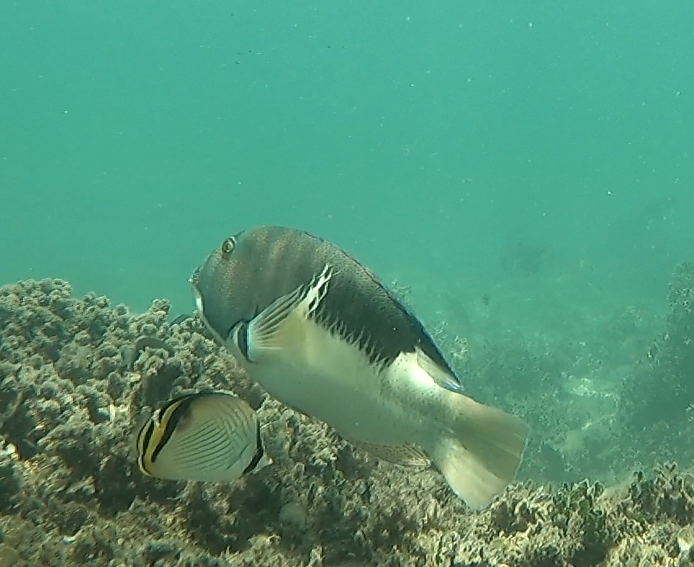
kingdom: Animalia
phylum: Chordata
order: Perciformes
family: Labridae
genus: Choerodon
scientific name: Choerodon anchorago
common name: Anchor tuskfish
